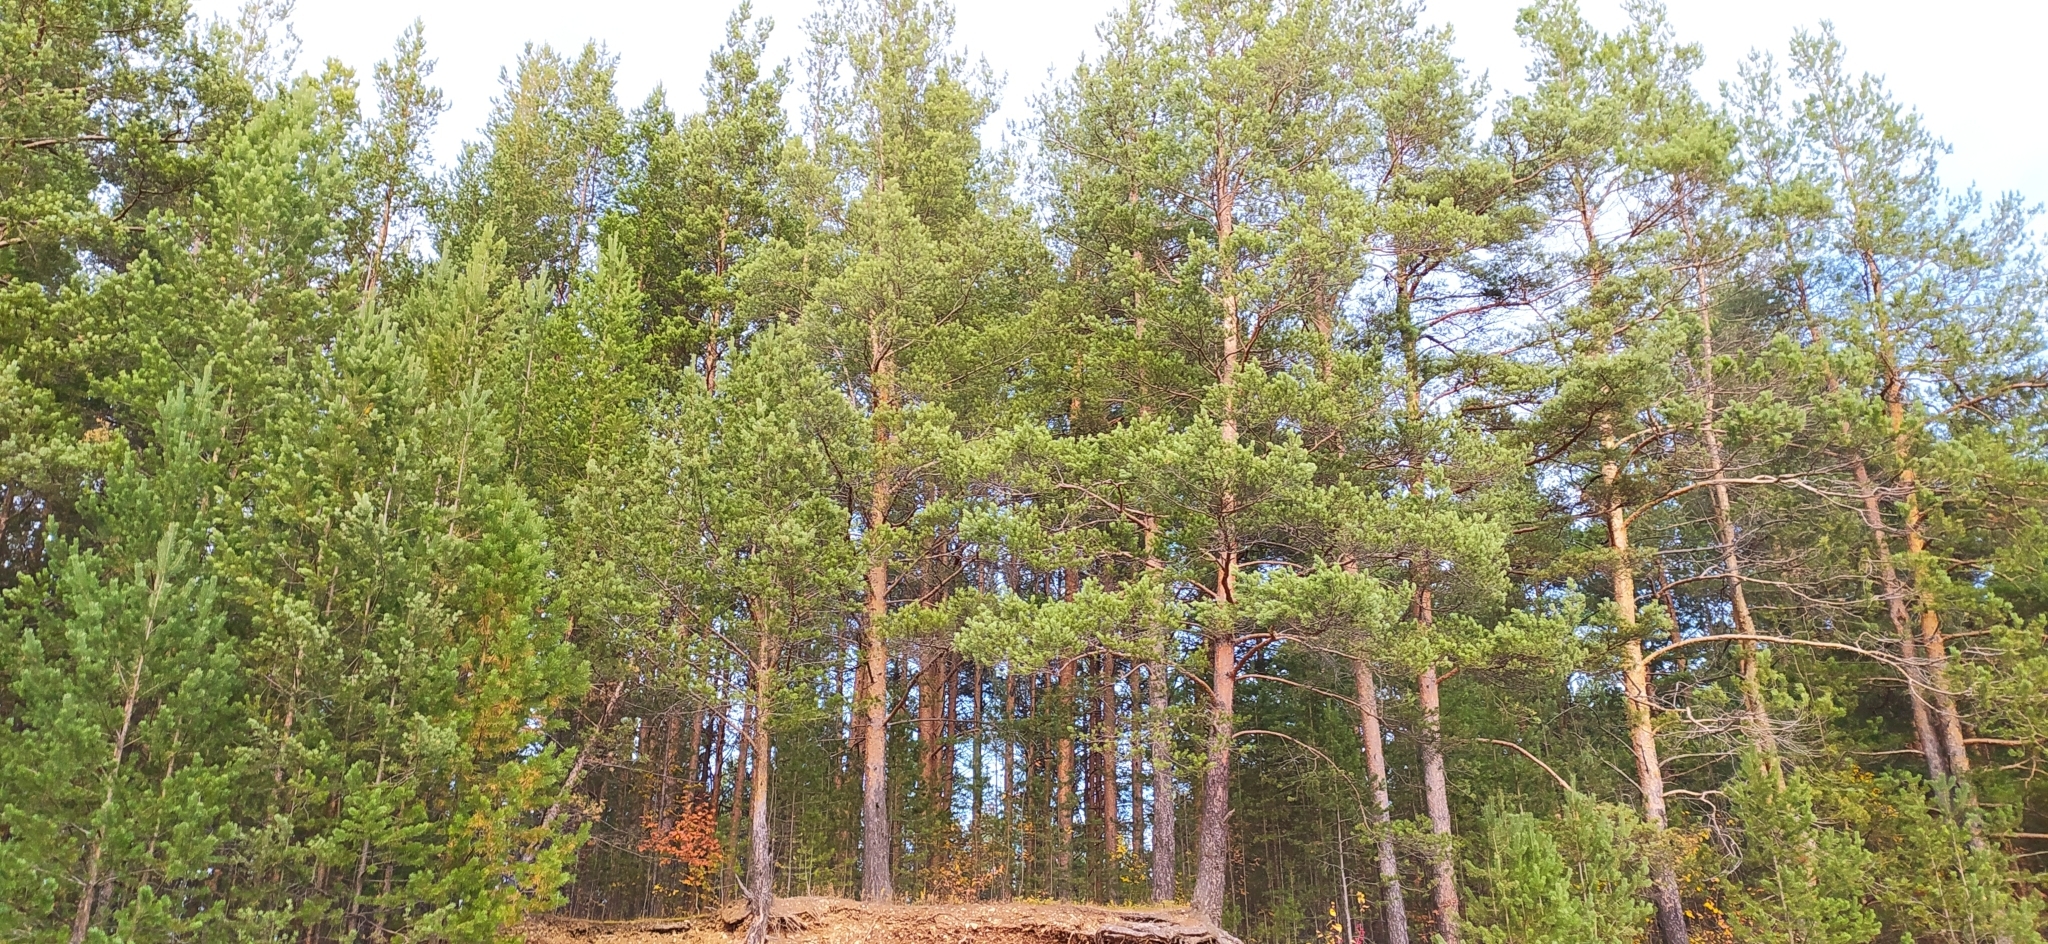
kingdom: Plantae
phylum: Tracheophyta
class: Pinopsida
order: Pinales
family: Pinaceae
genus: Pinus
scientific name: Pinus sylvestris
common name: Scots pine
